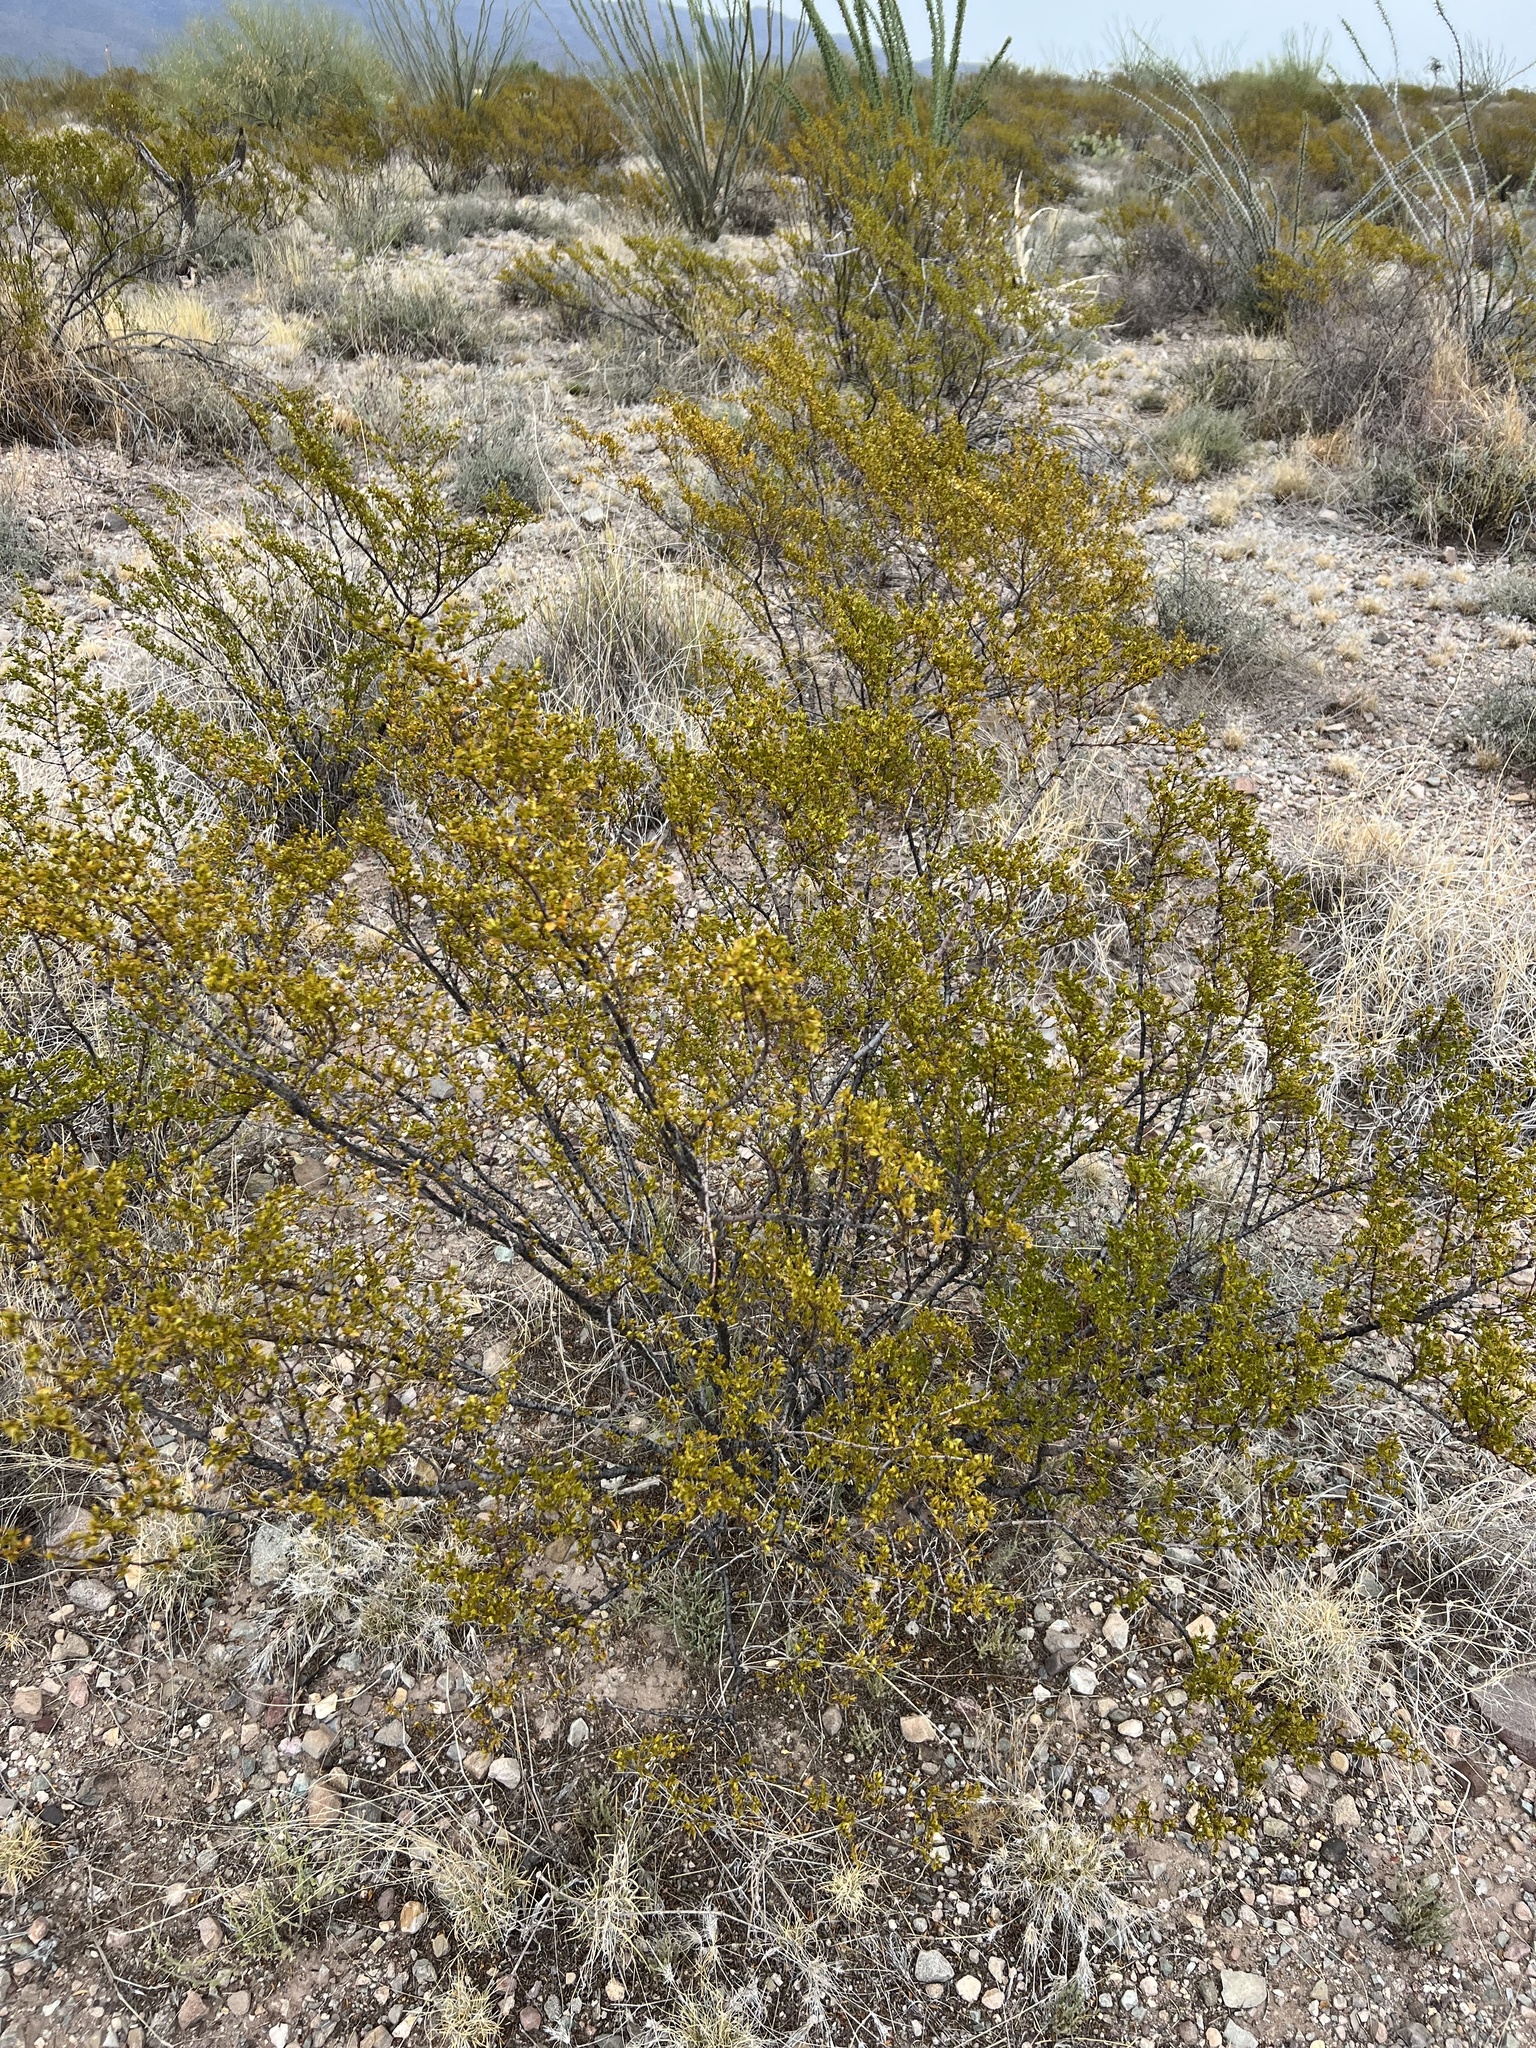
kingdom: Plantae
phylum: Tracheophyta
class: Magnoliopsida
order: Zygophyllales
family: Zygophyllaceae
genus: Larrea
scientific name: Larrea tridentata
